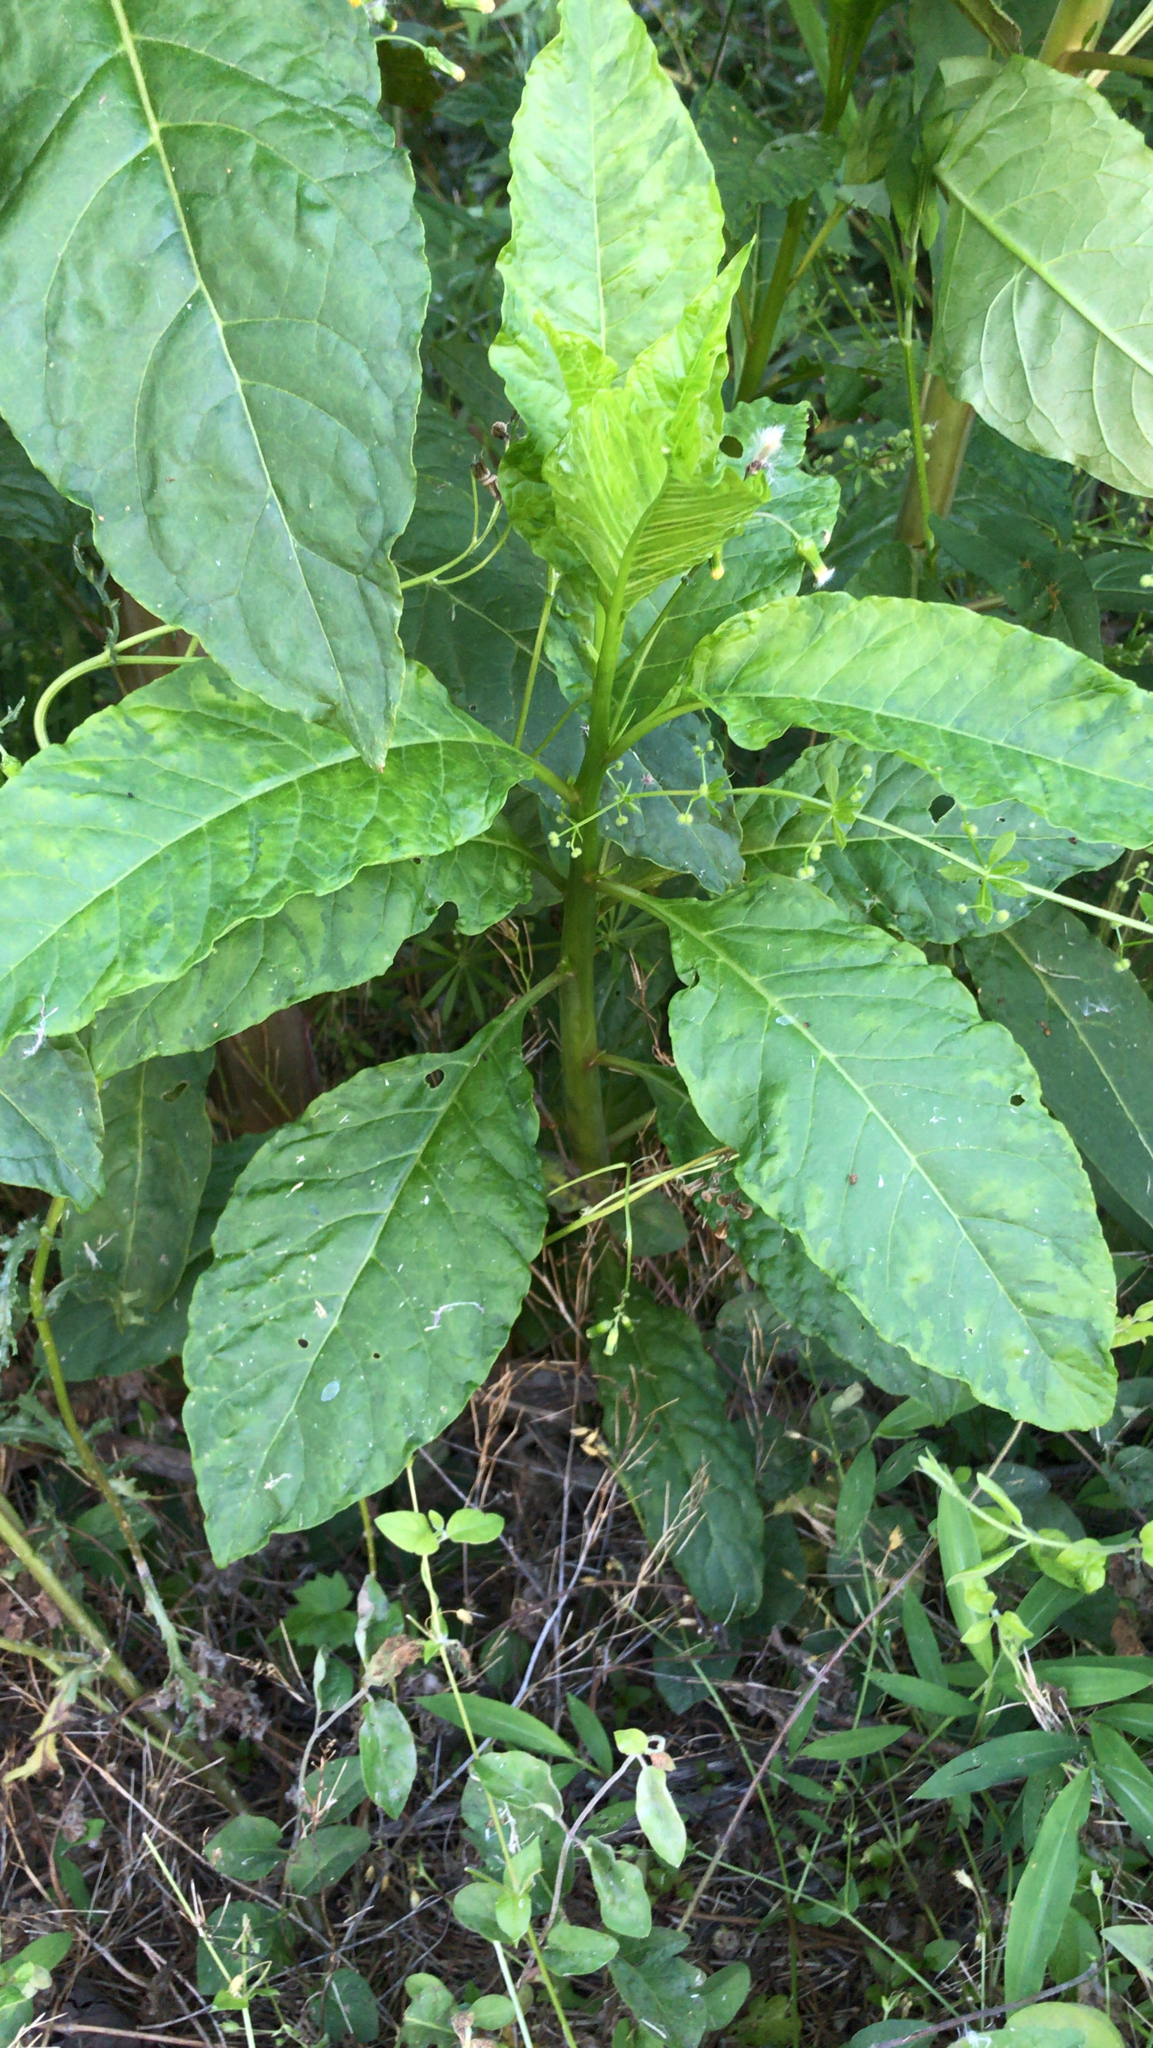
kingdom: Plantae
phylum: Tracheophyta
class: Magnoliopsida
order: Caryophyllales
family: Phytolaccaceae
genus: Phytolacca
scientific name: Phytolacca americana
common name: American pokeweed
